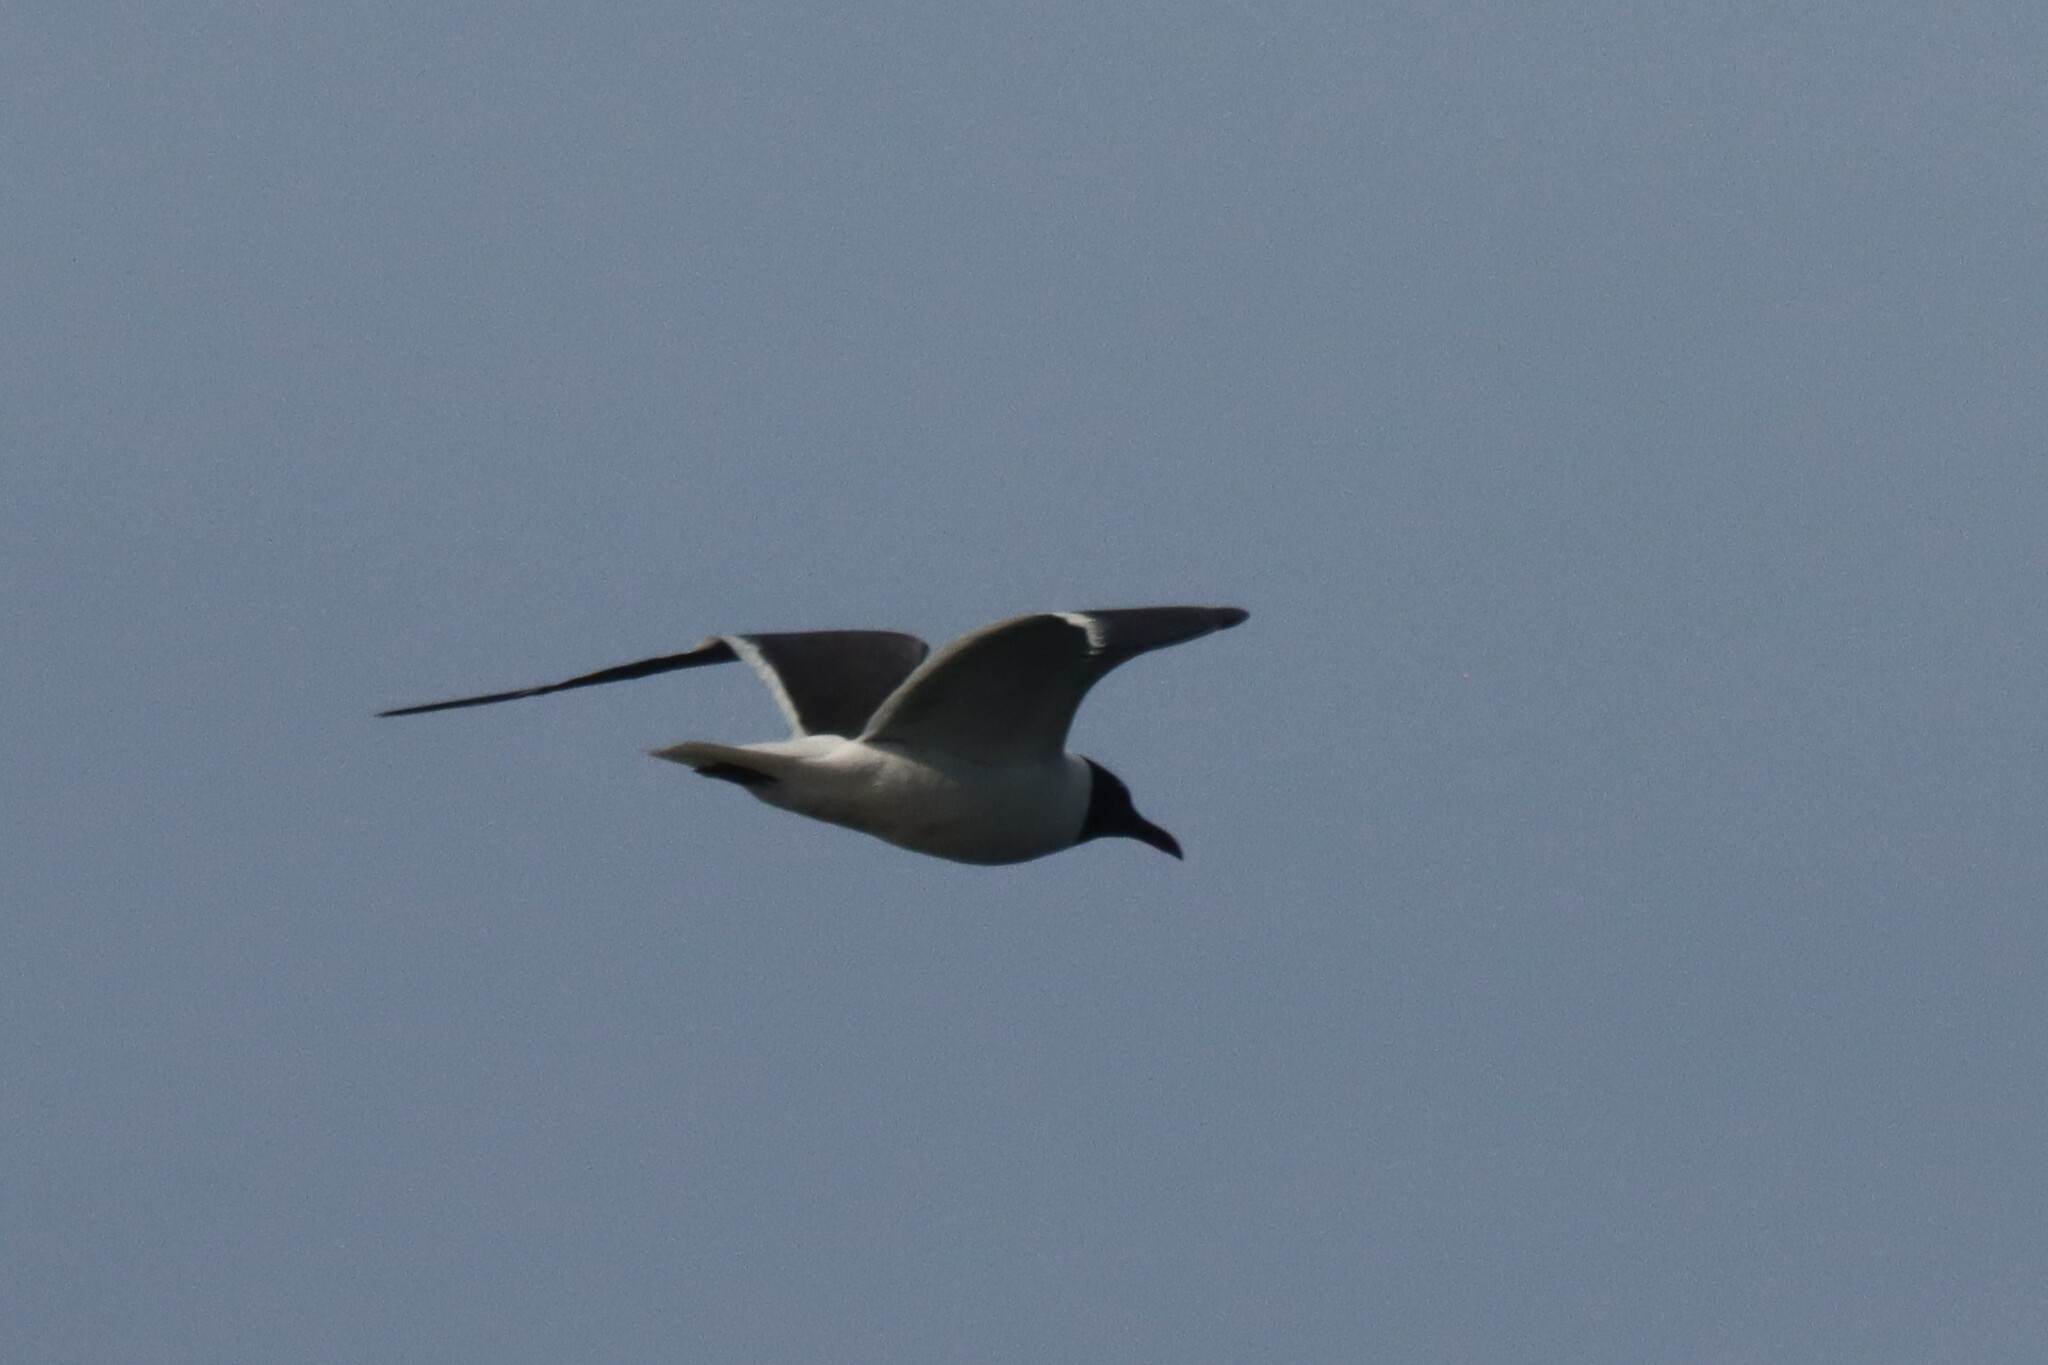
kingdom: Animalia
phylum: Chordata
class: Aves
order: Charadriiformes
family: Laridae
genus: Leucophaeus
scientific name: Leucophaeus atricilla
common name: Laughing gull
